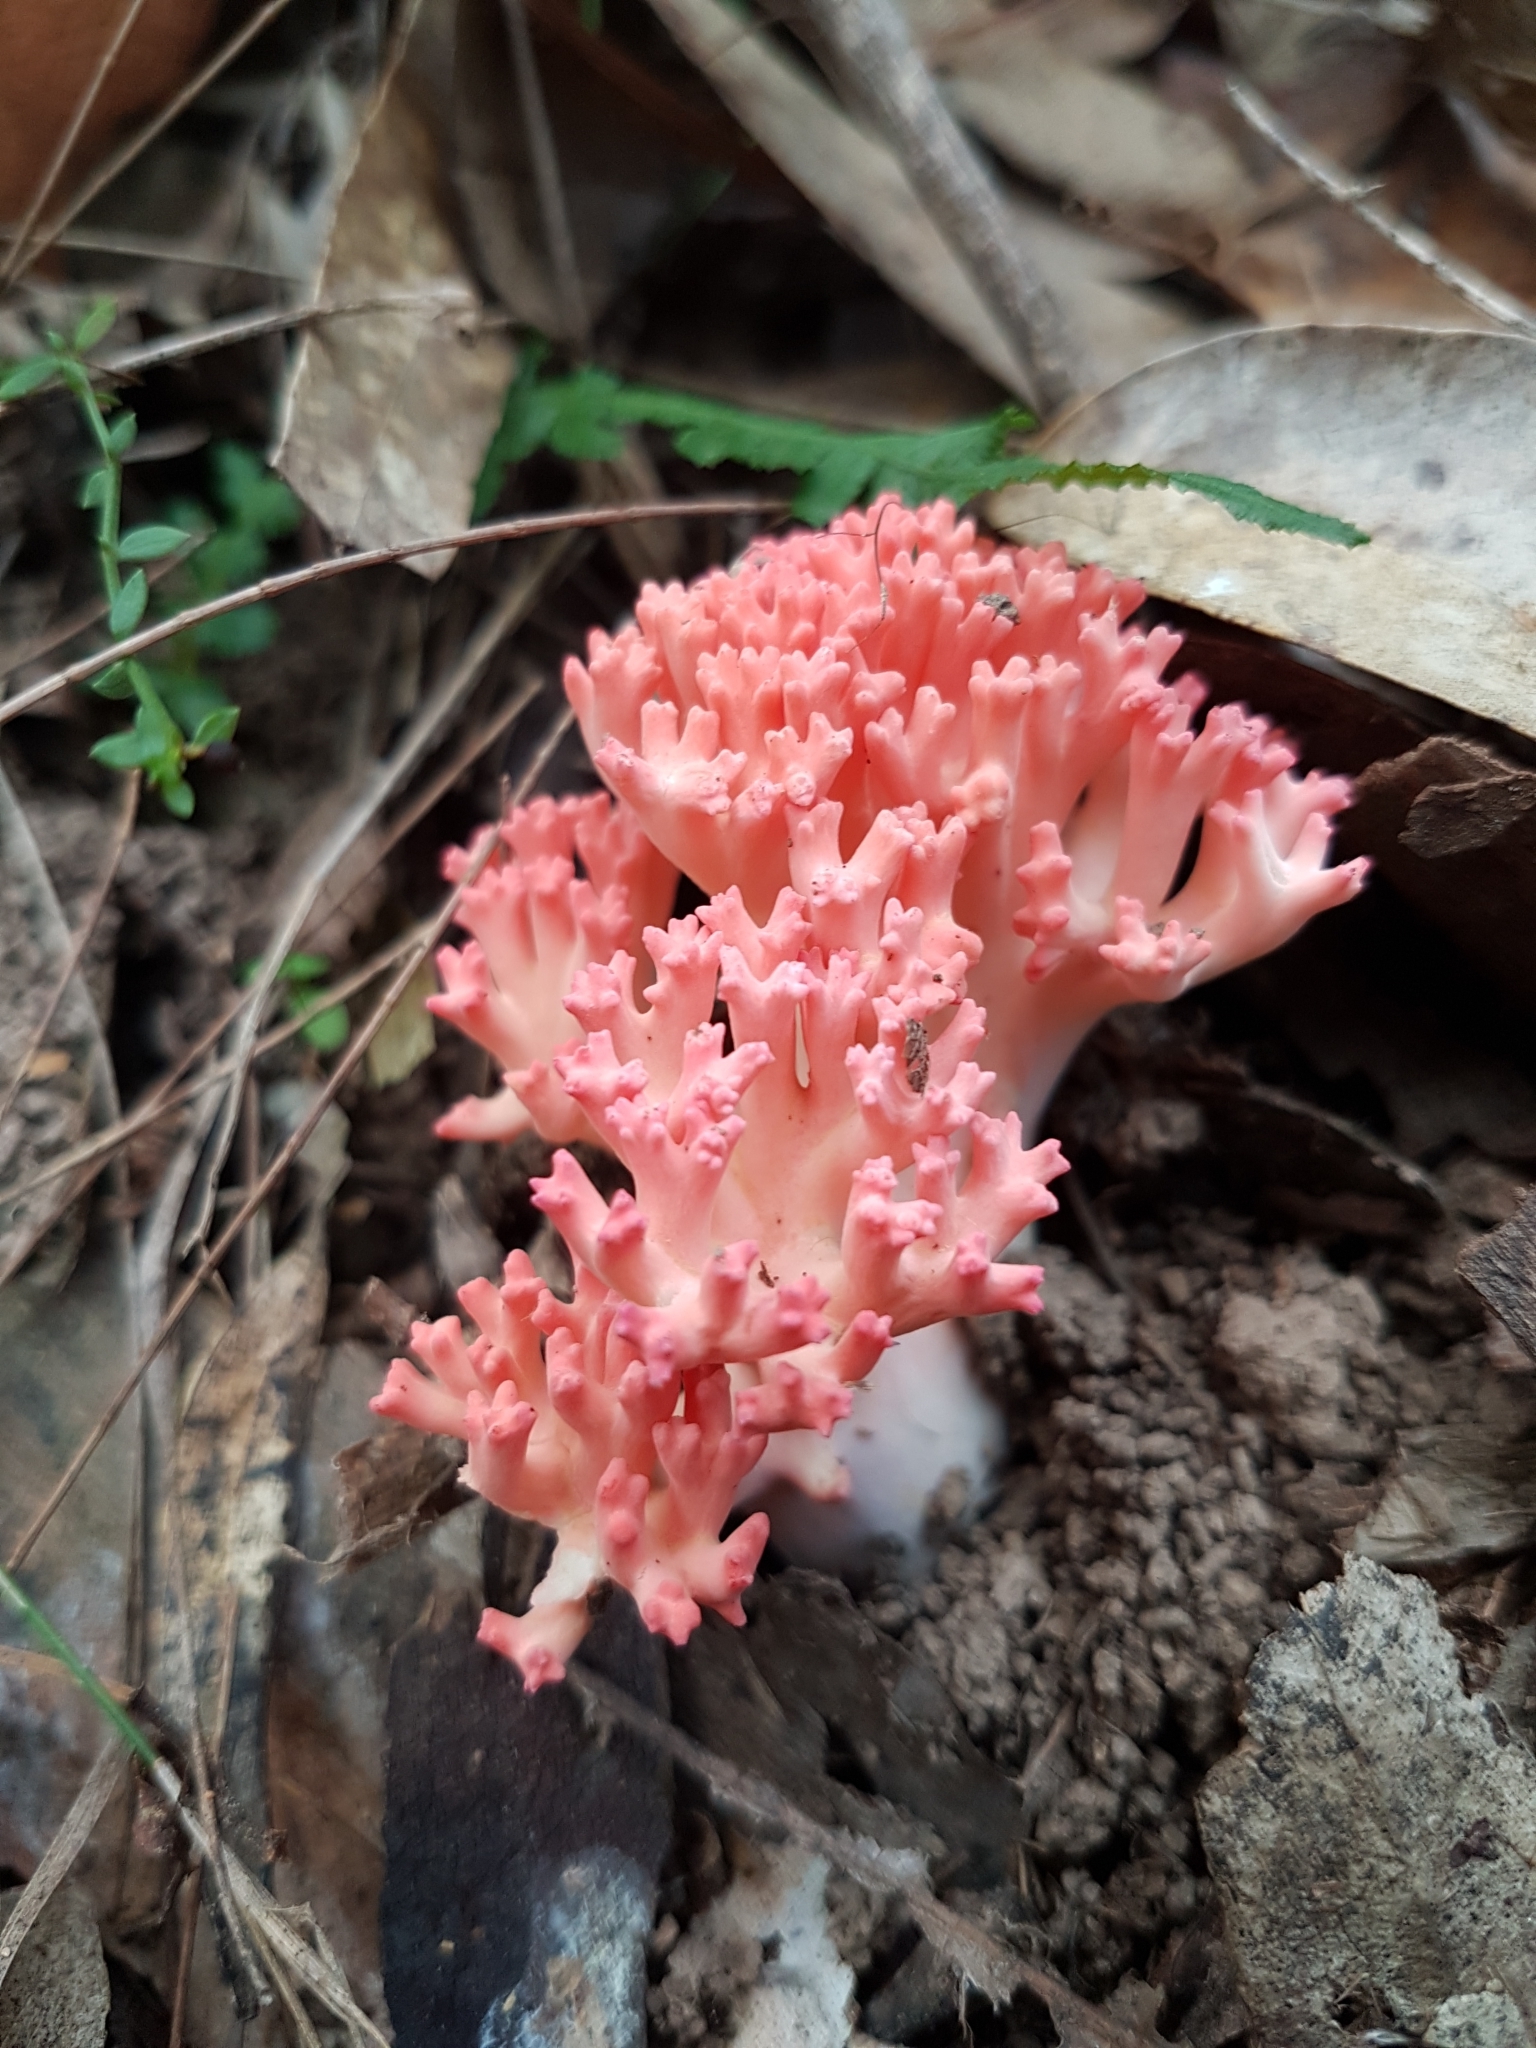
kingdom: Fungi
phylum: Basidiomycota
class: Agaricomycetes
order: Gomphales
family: Gomphaceae
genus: Ramaria
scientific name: Ramaria botrytoides
